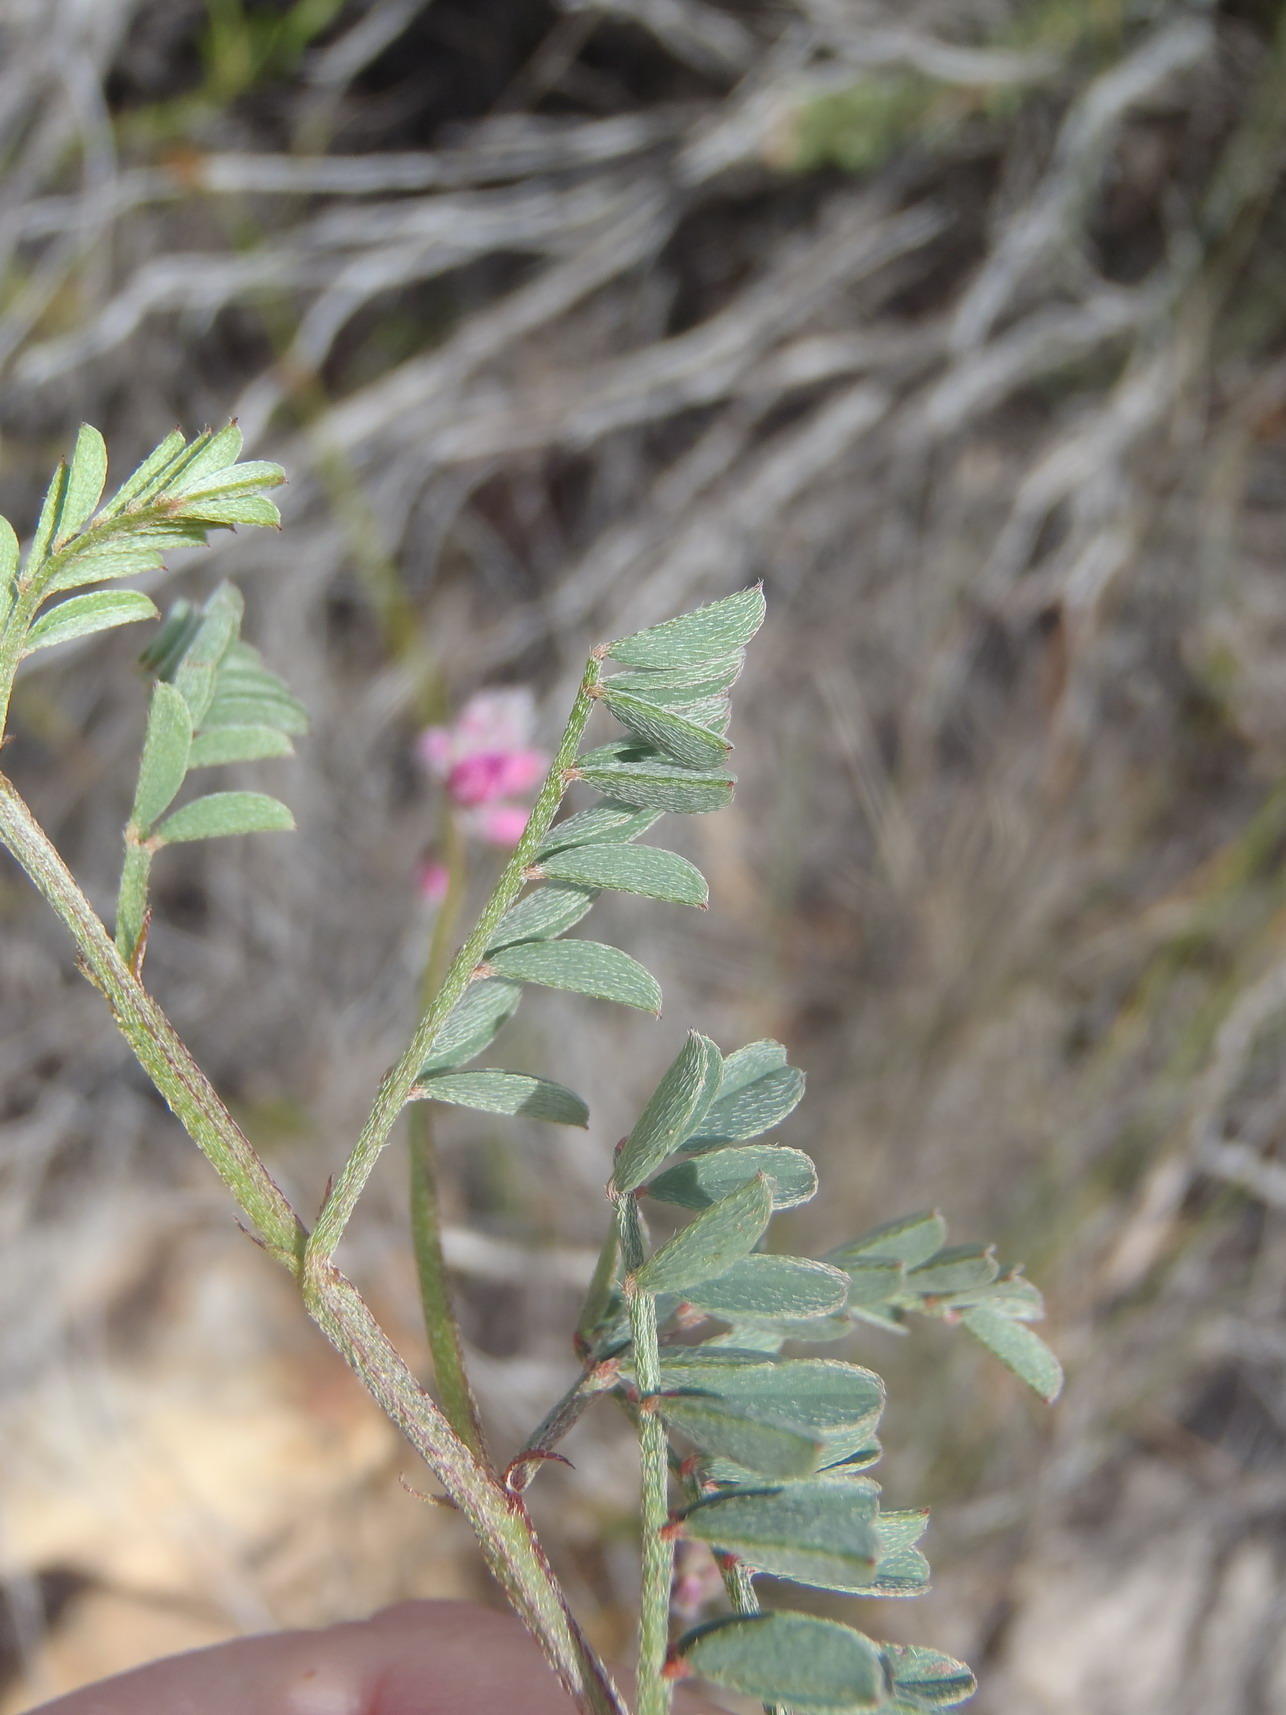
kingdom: Plantae
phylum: Tracheophyta
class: Magnoliopsida
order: Fabales
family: Fabaceae
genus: Indigofera
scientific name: Indigofera declinata
